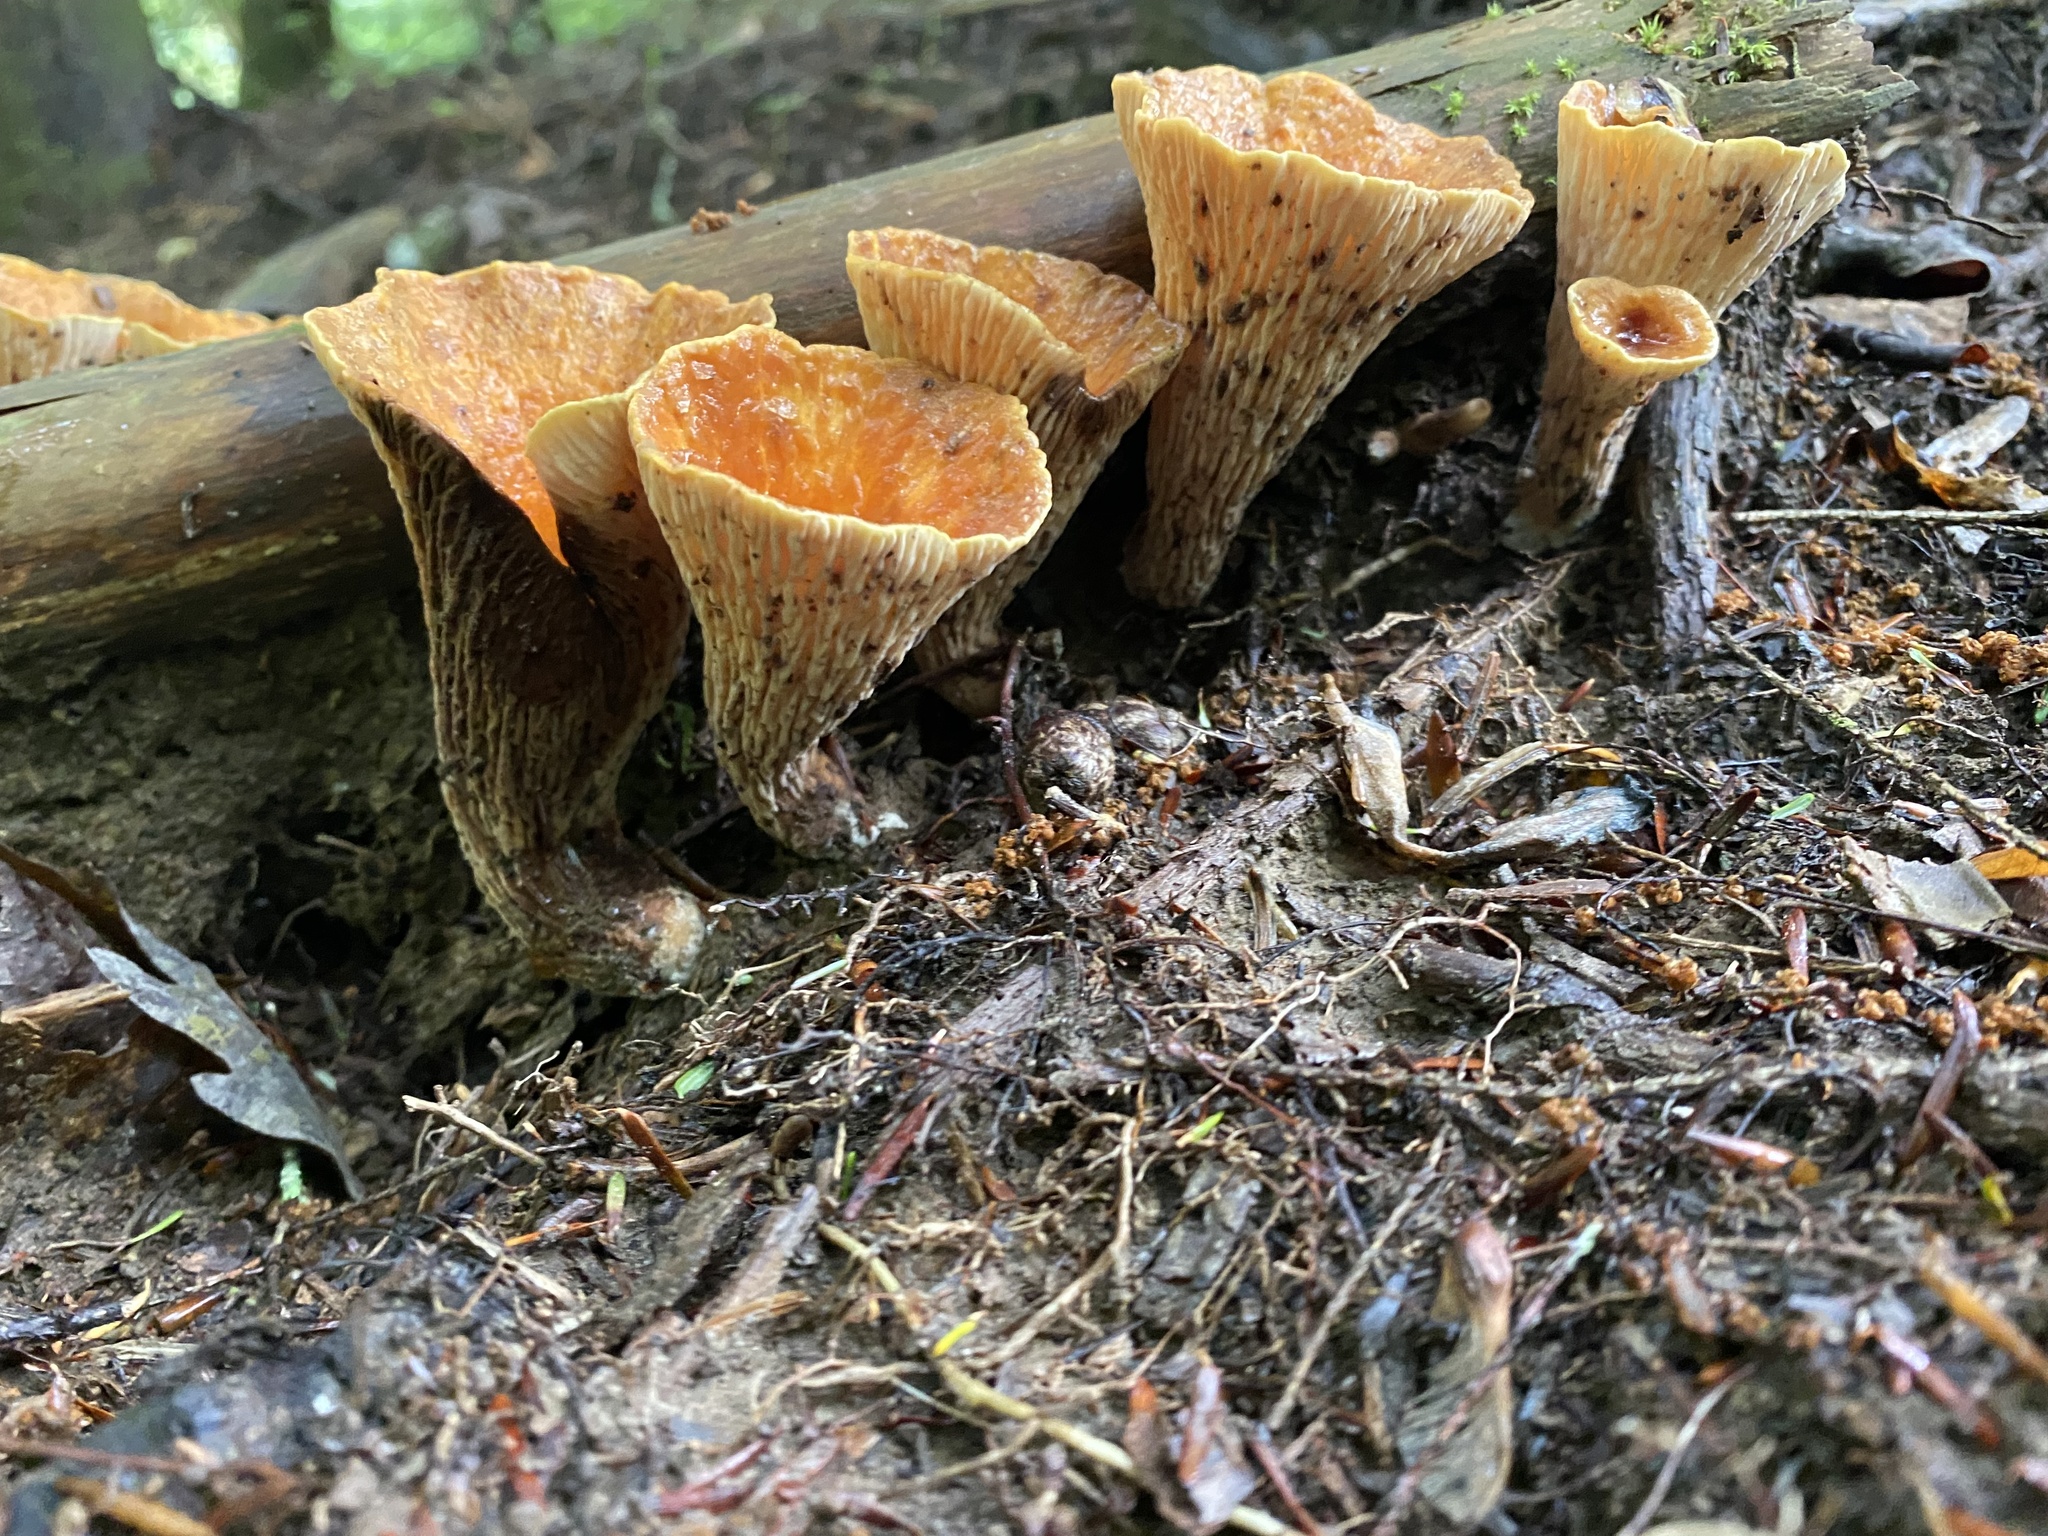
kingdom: Fungi
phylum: Basidiomycota
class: Agaricomycetes
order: Gomphales
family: Gomphaceae
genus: Turbinellus
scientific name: Turbinellus floccosus
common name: Scaly chanterelle
